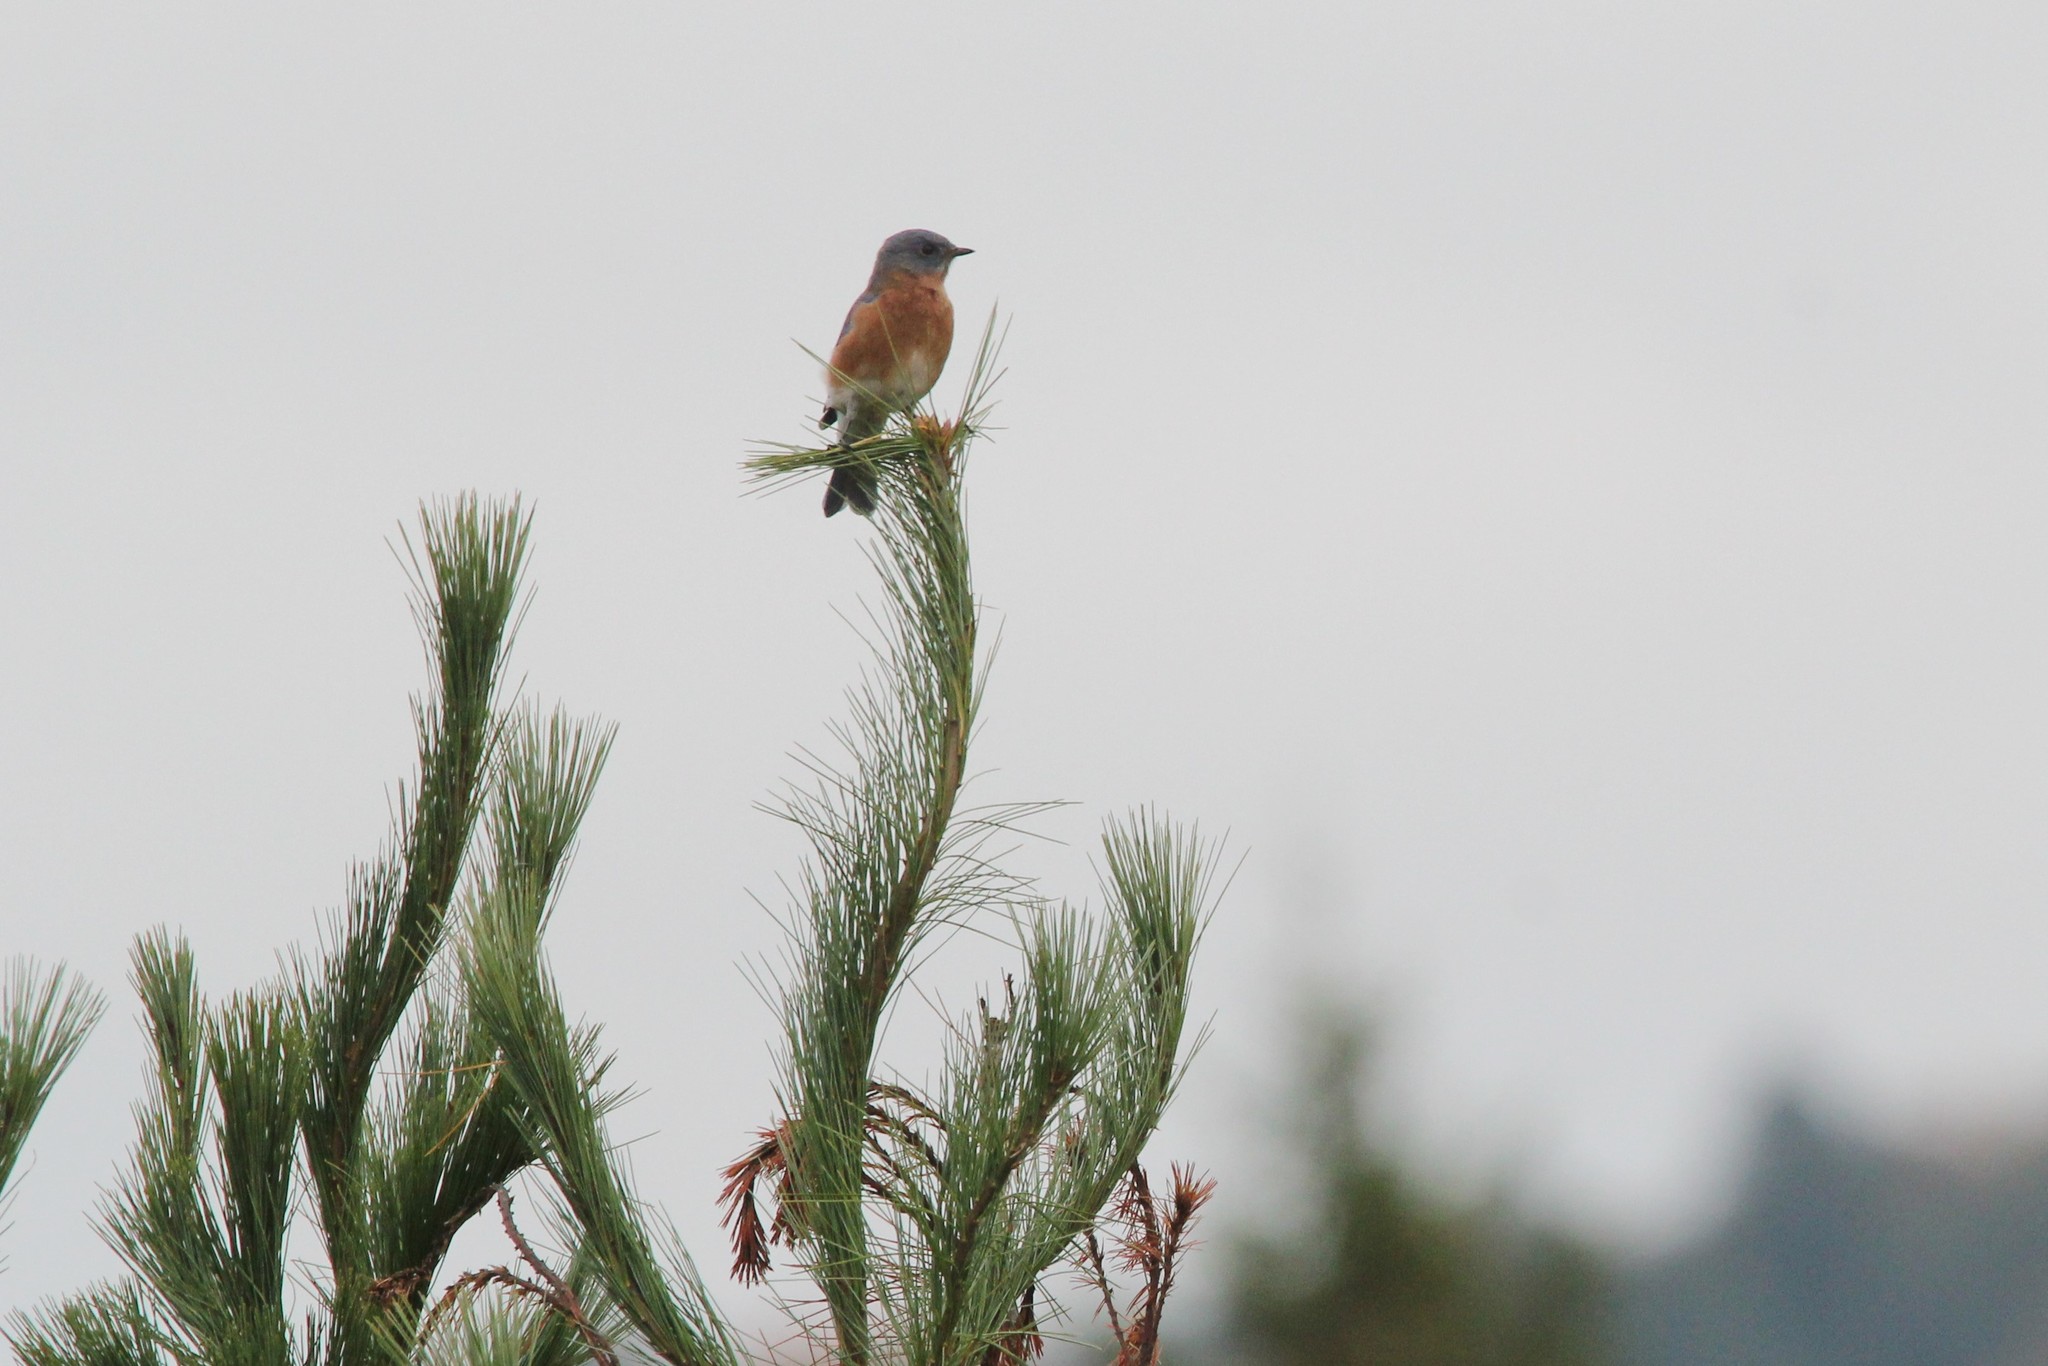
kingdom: Animalia
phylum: Chordata
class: Aves
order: Passeriformes
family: Turdidae
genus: Sialia
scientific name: Sialia sialis
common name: Eastern bluebird
